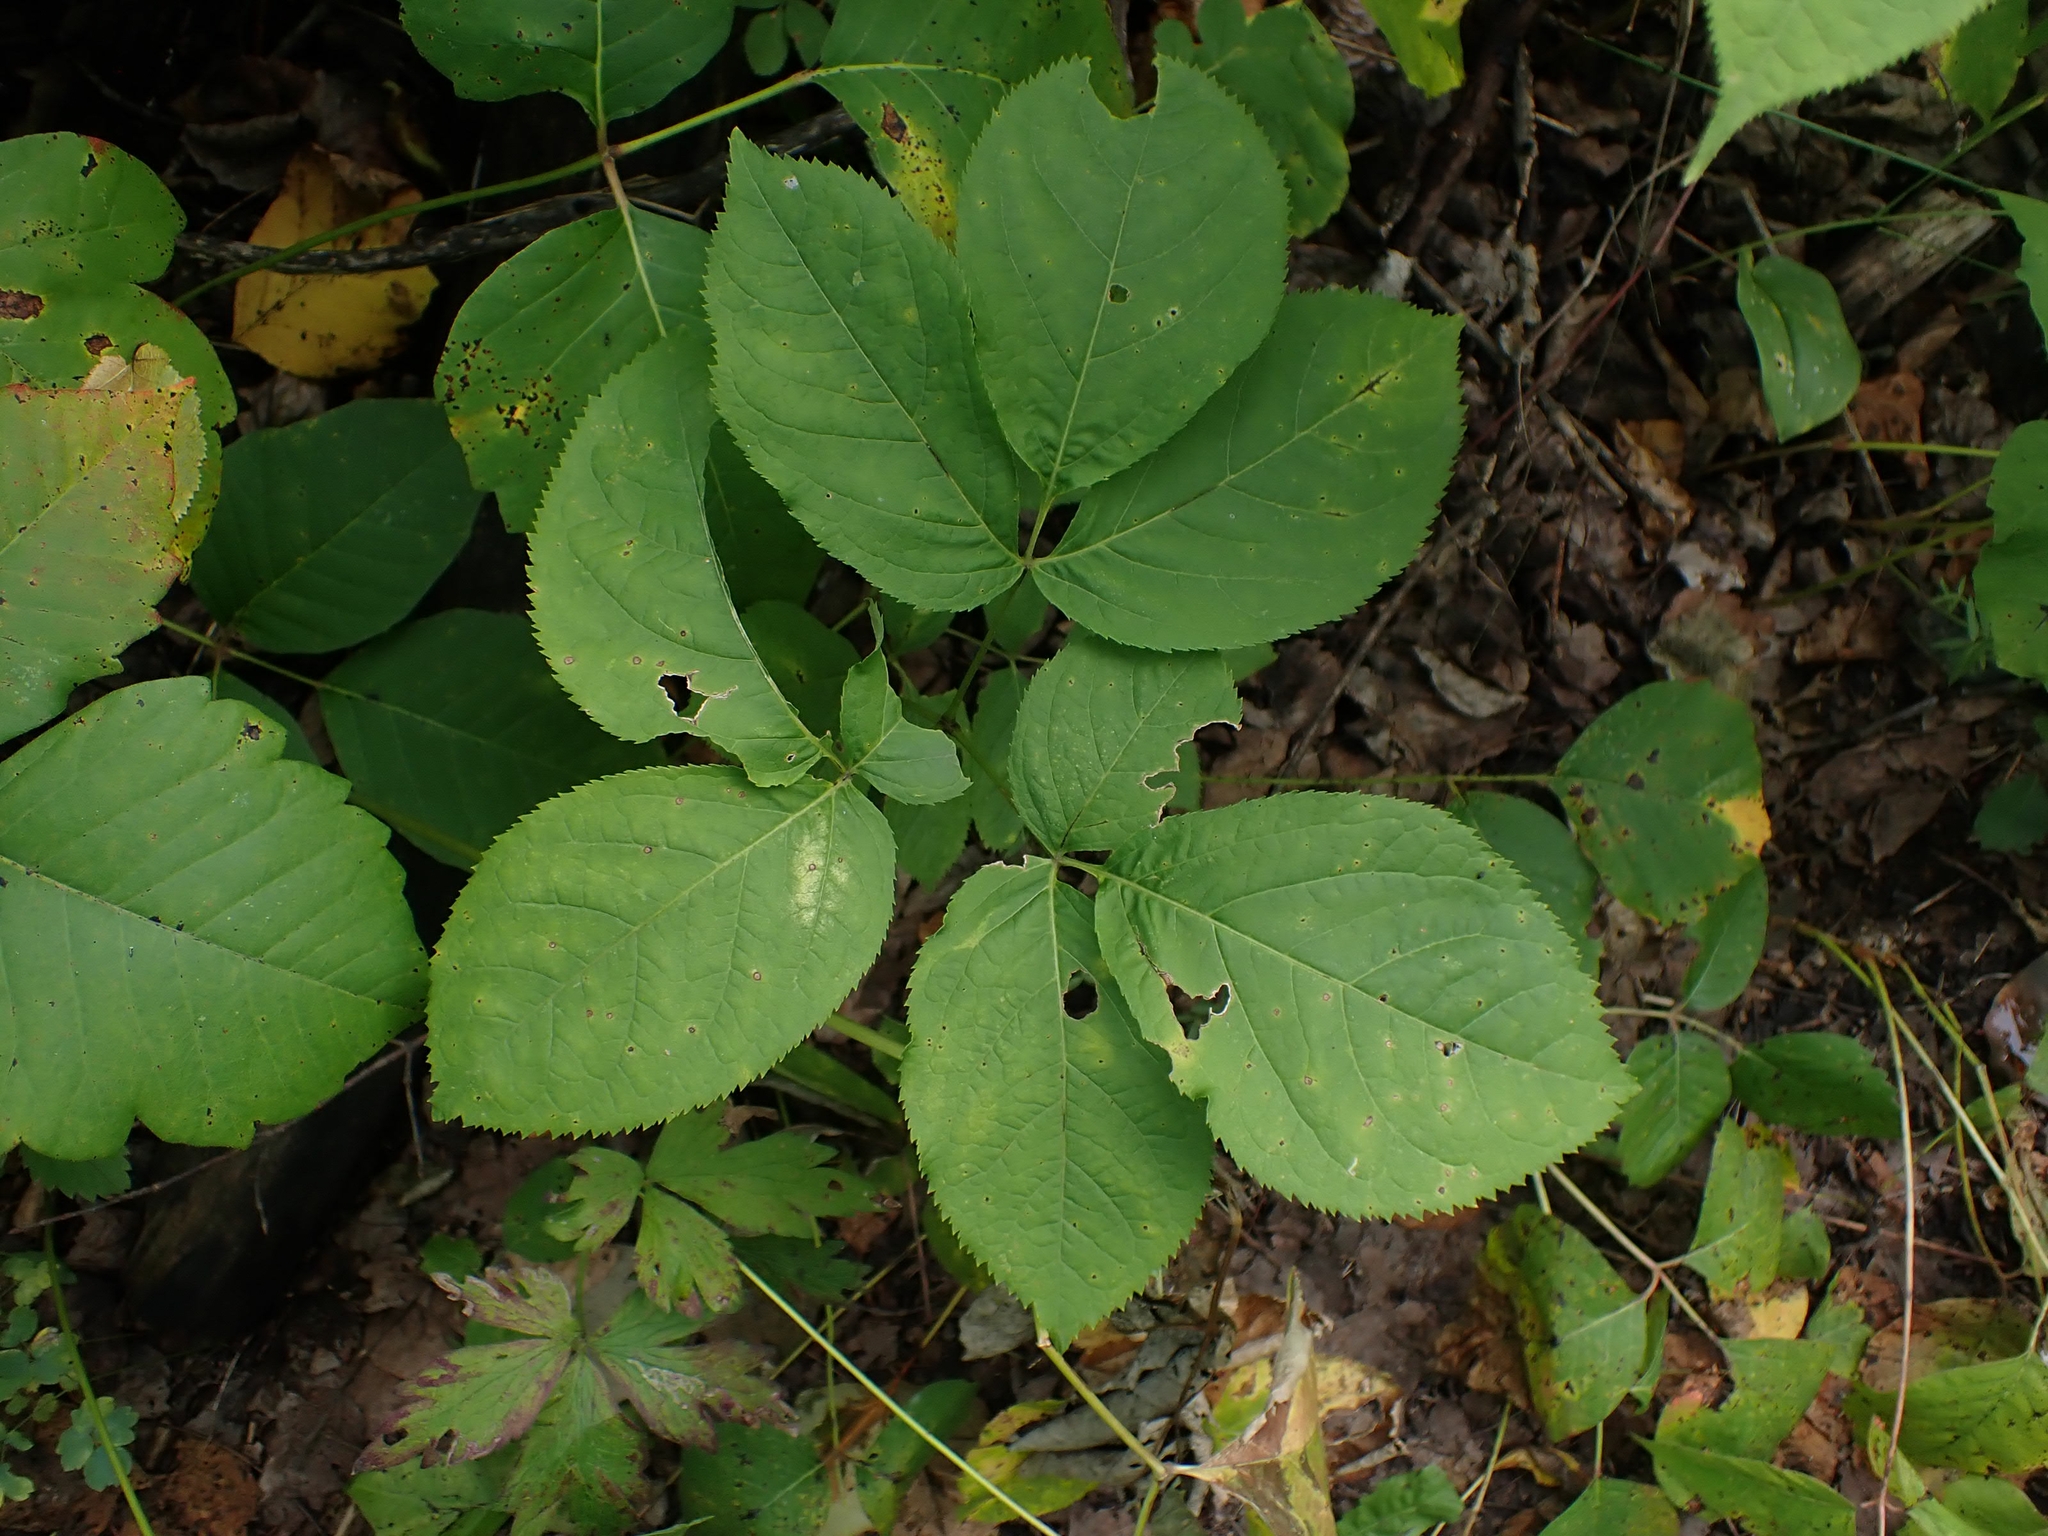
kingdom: Plantae
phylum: Tracheophyta
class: Magnoliopsida
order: Apiales
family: Araliaceae
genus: Aralia
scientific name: Aralia nudicaulis
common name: Wild sarsaparilla
